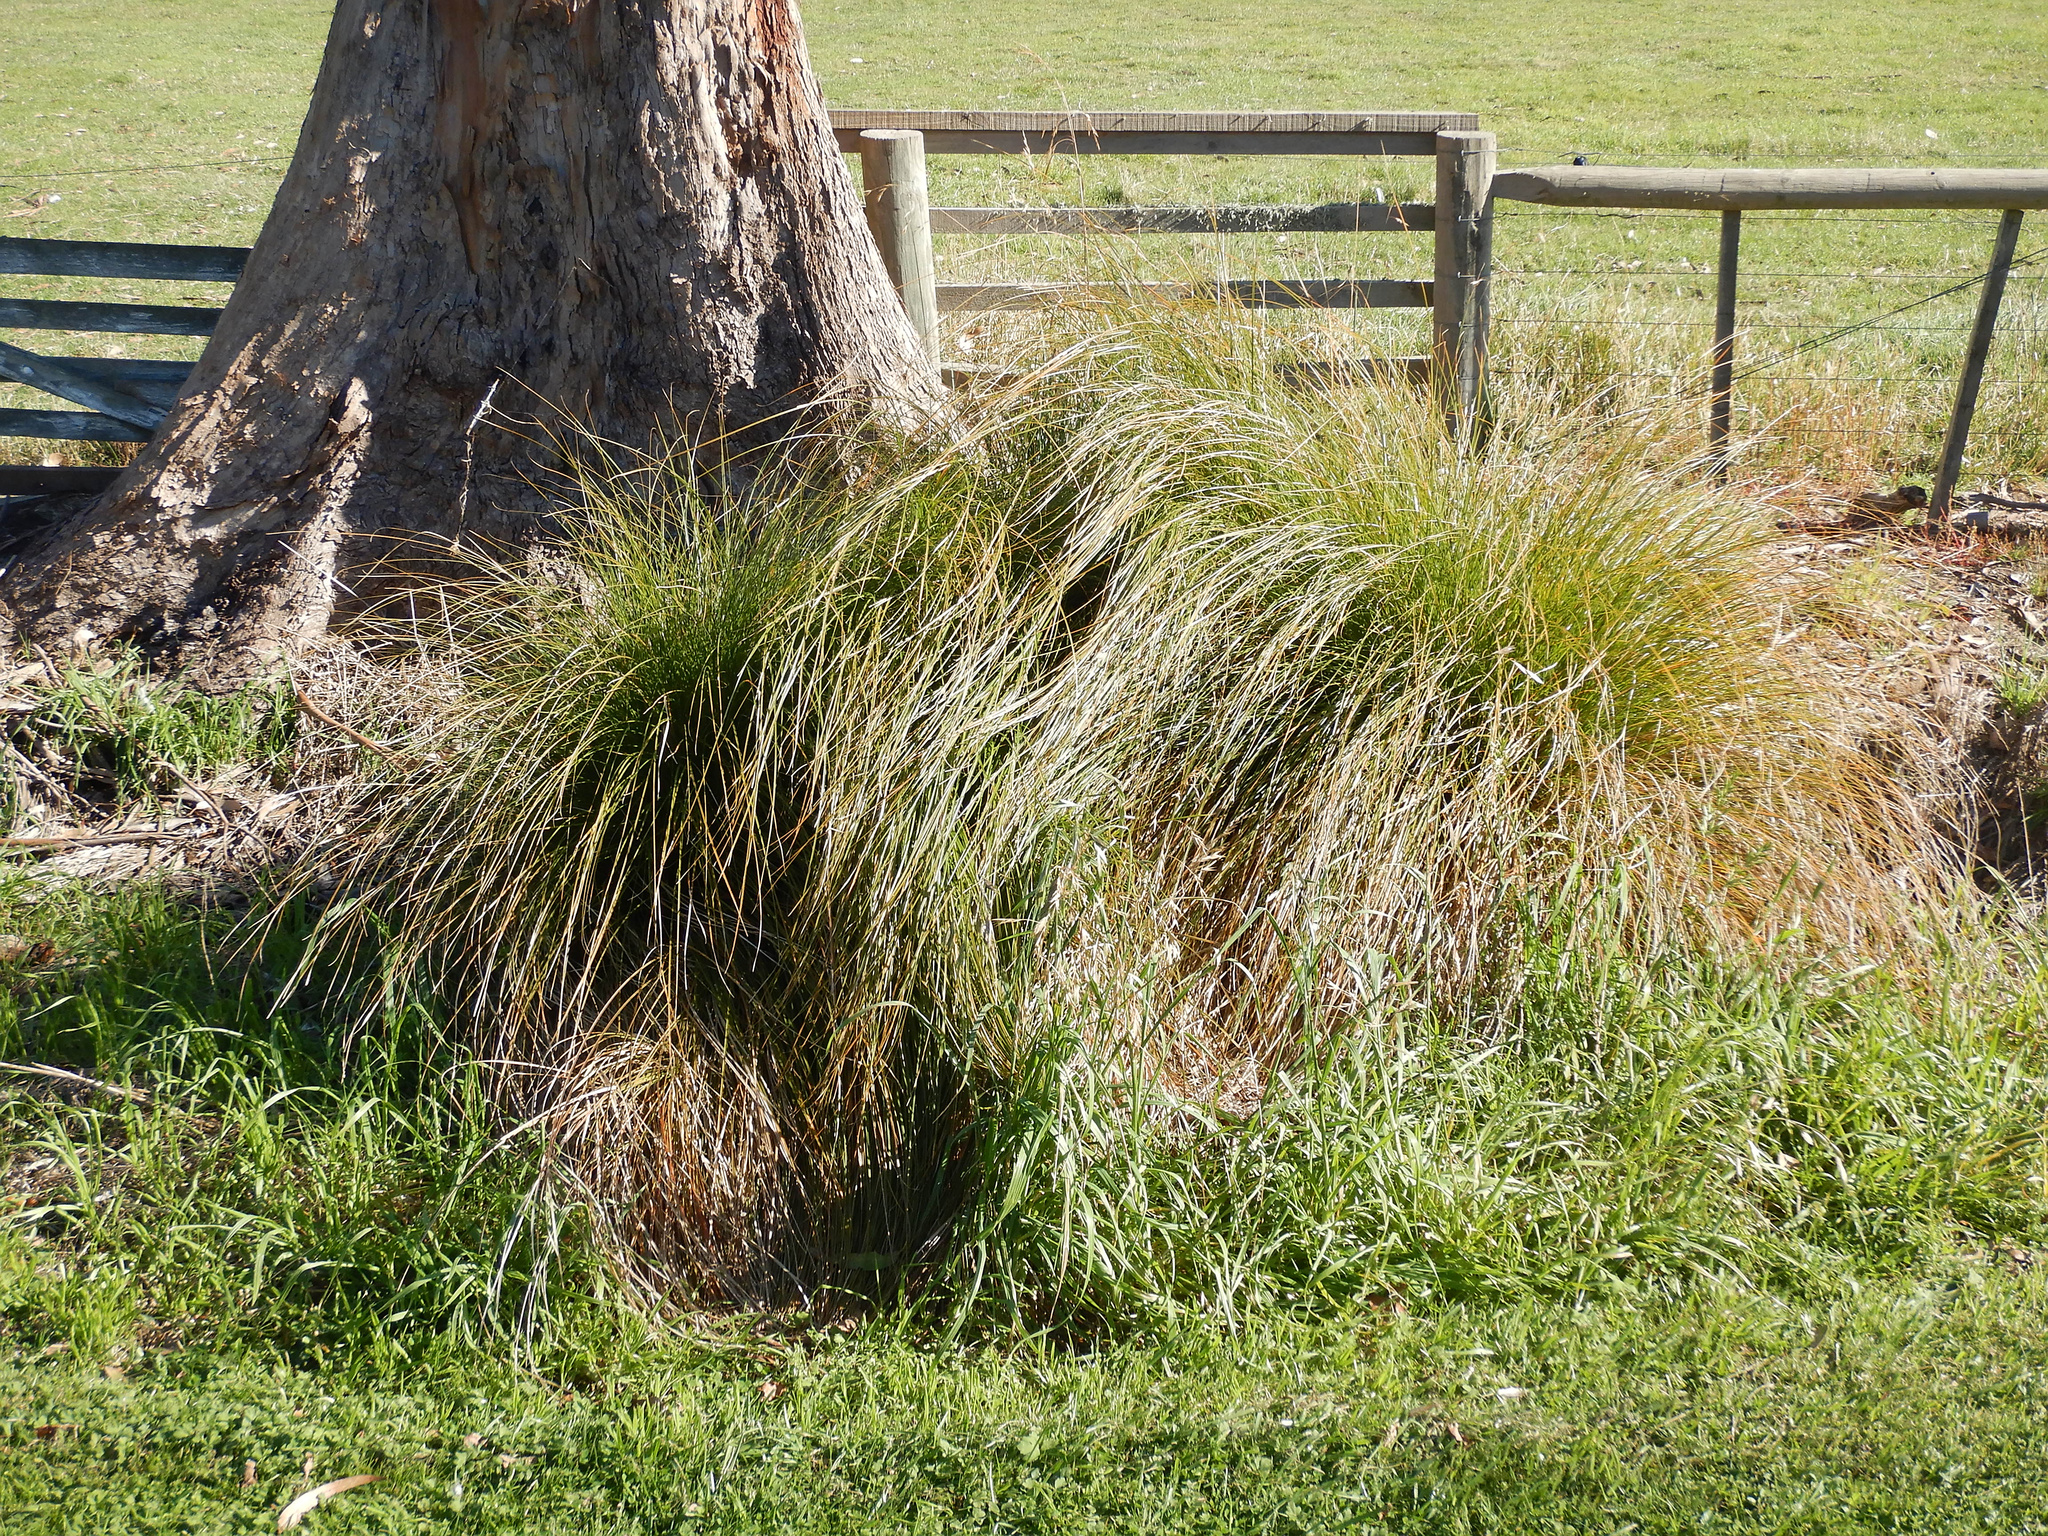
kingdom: Plantae
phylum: Tracheophyta
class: Liliopsida
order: Poales
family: Cyperaceae
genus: Carex
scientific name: Carex secta
